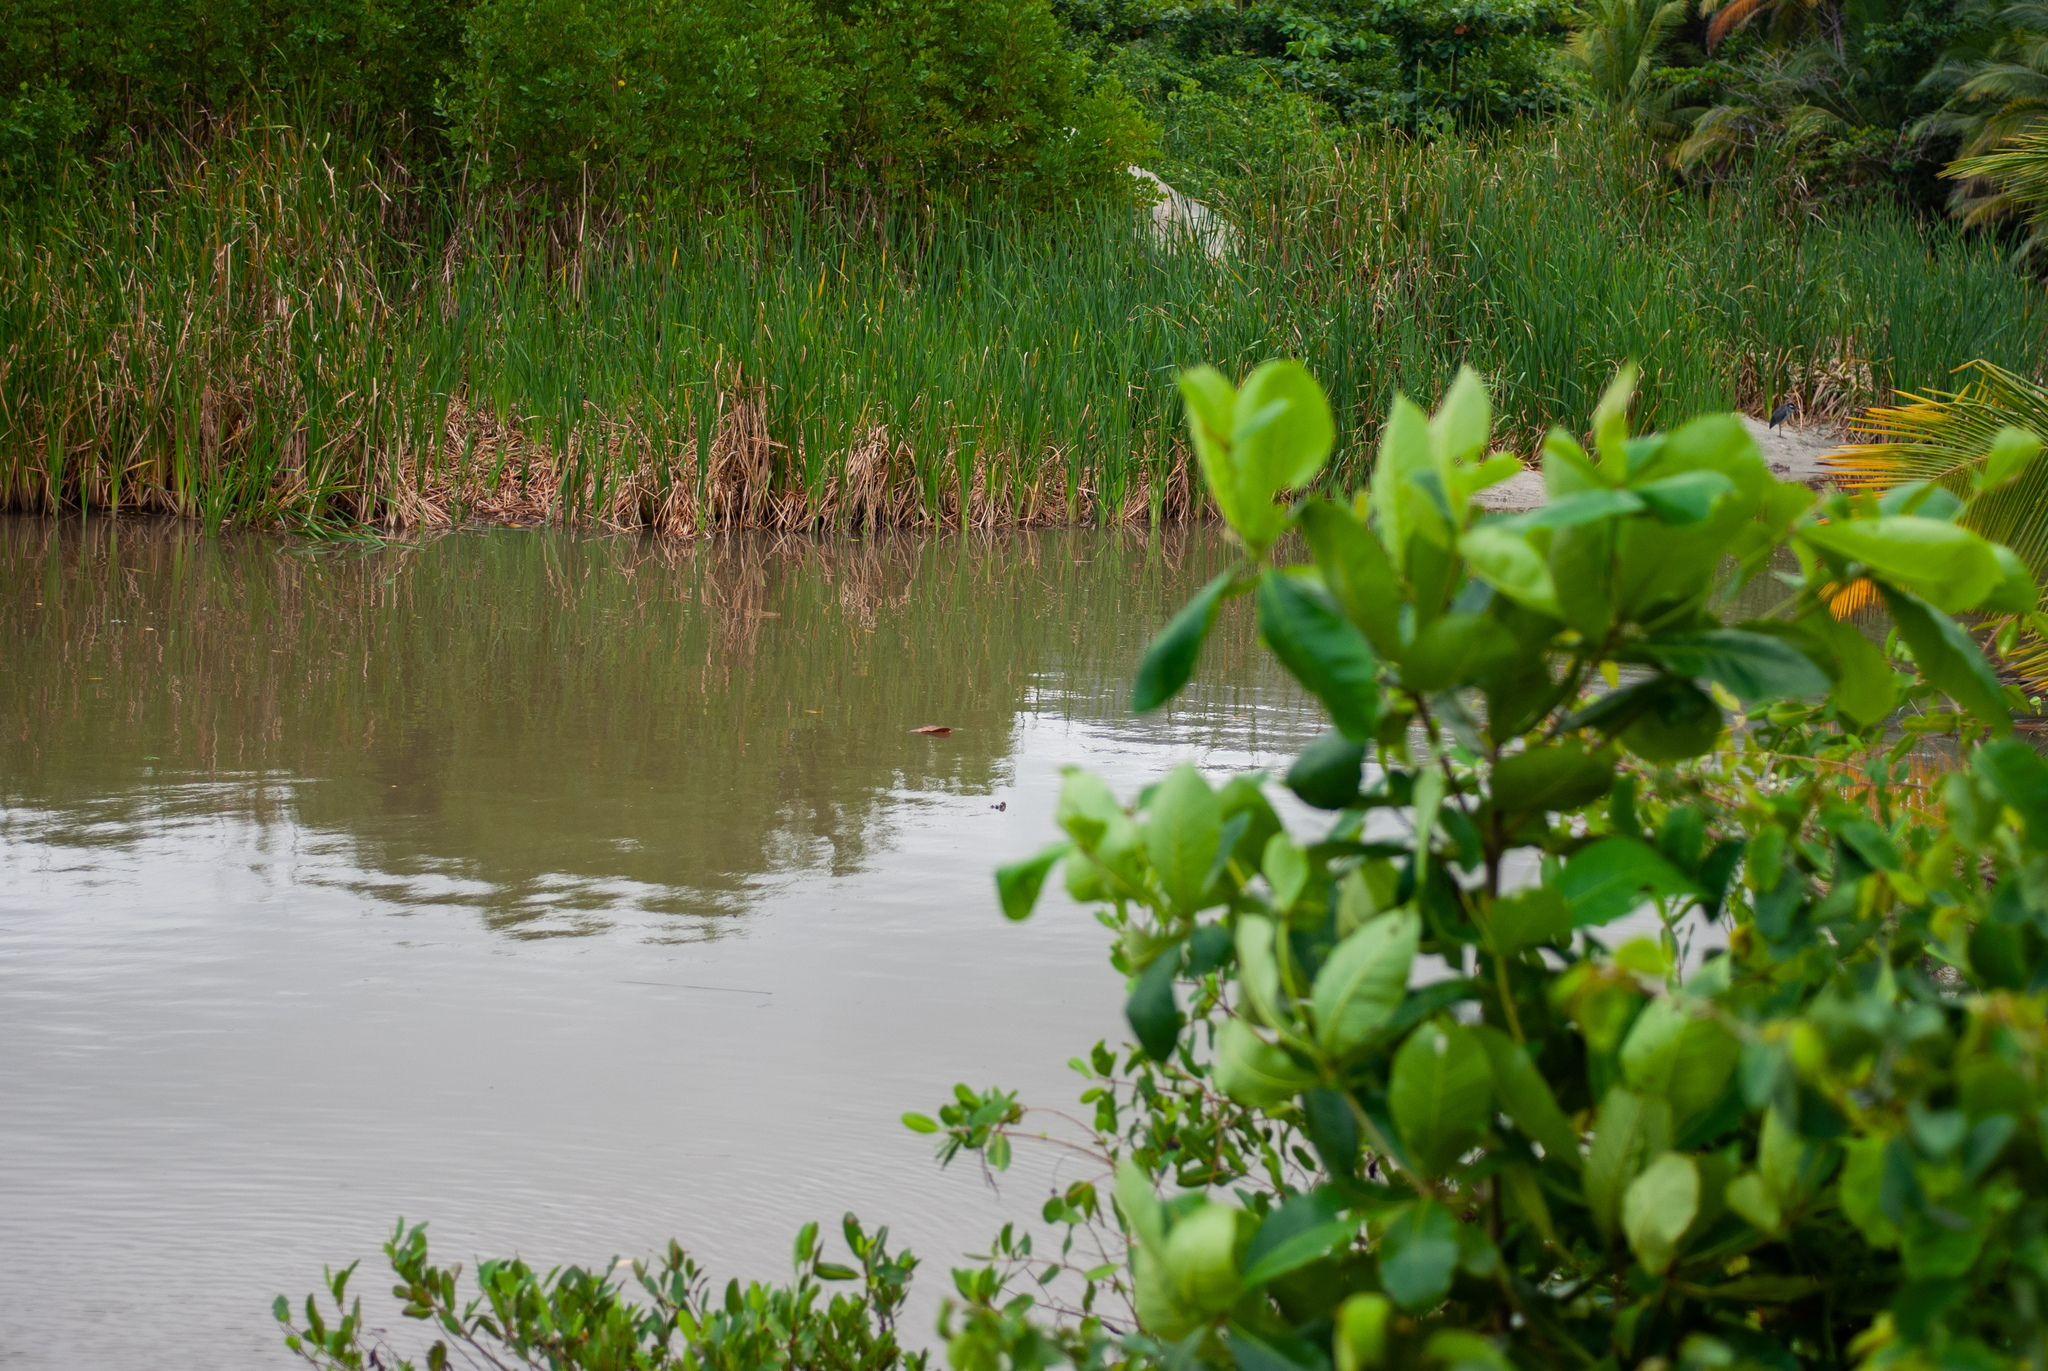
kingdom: Animalia
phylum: Chordata
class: Crocodylia
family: Crocodylidae
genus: Crocodylus
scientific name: Crocodylus acutus
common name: American crocodile
